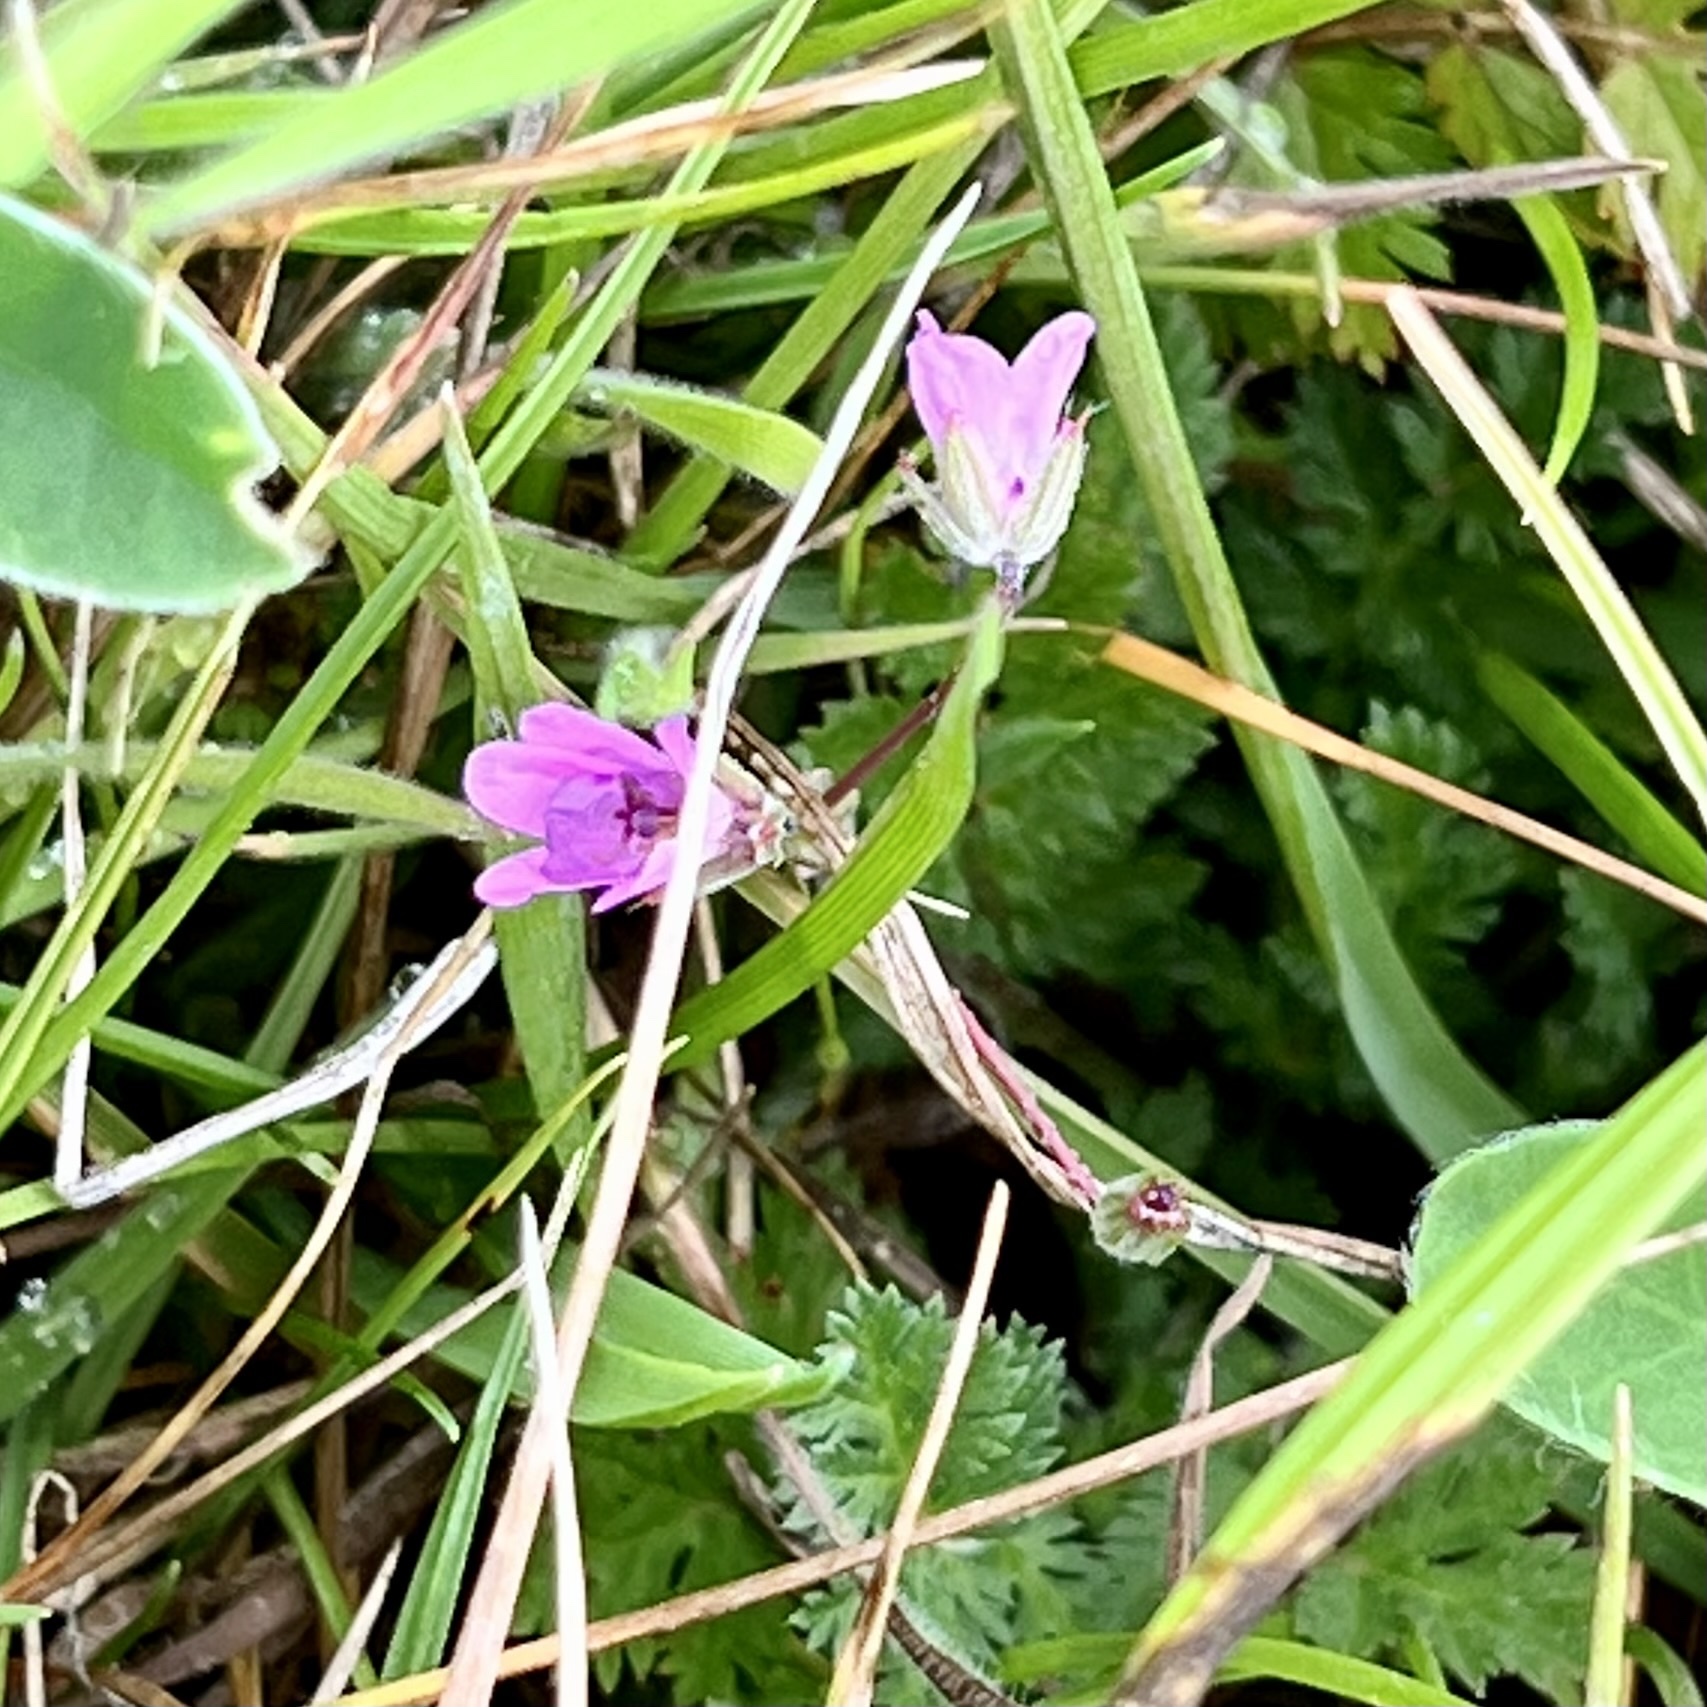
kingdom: Plantae
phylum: Tracheophyta
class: Magnoliopsida
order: Geraniales
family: Geraniaceae
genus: Erodium
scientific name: Erodium cicutarium
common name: Common stork's-bill
